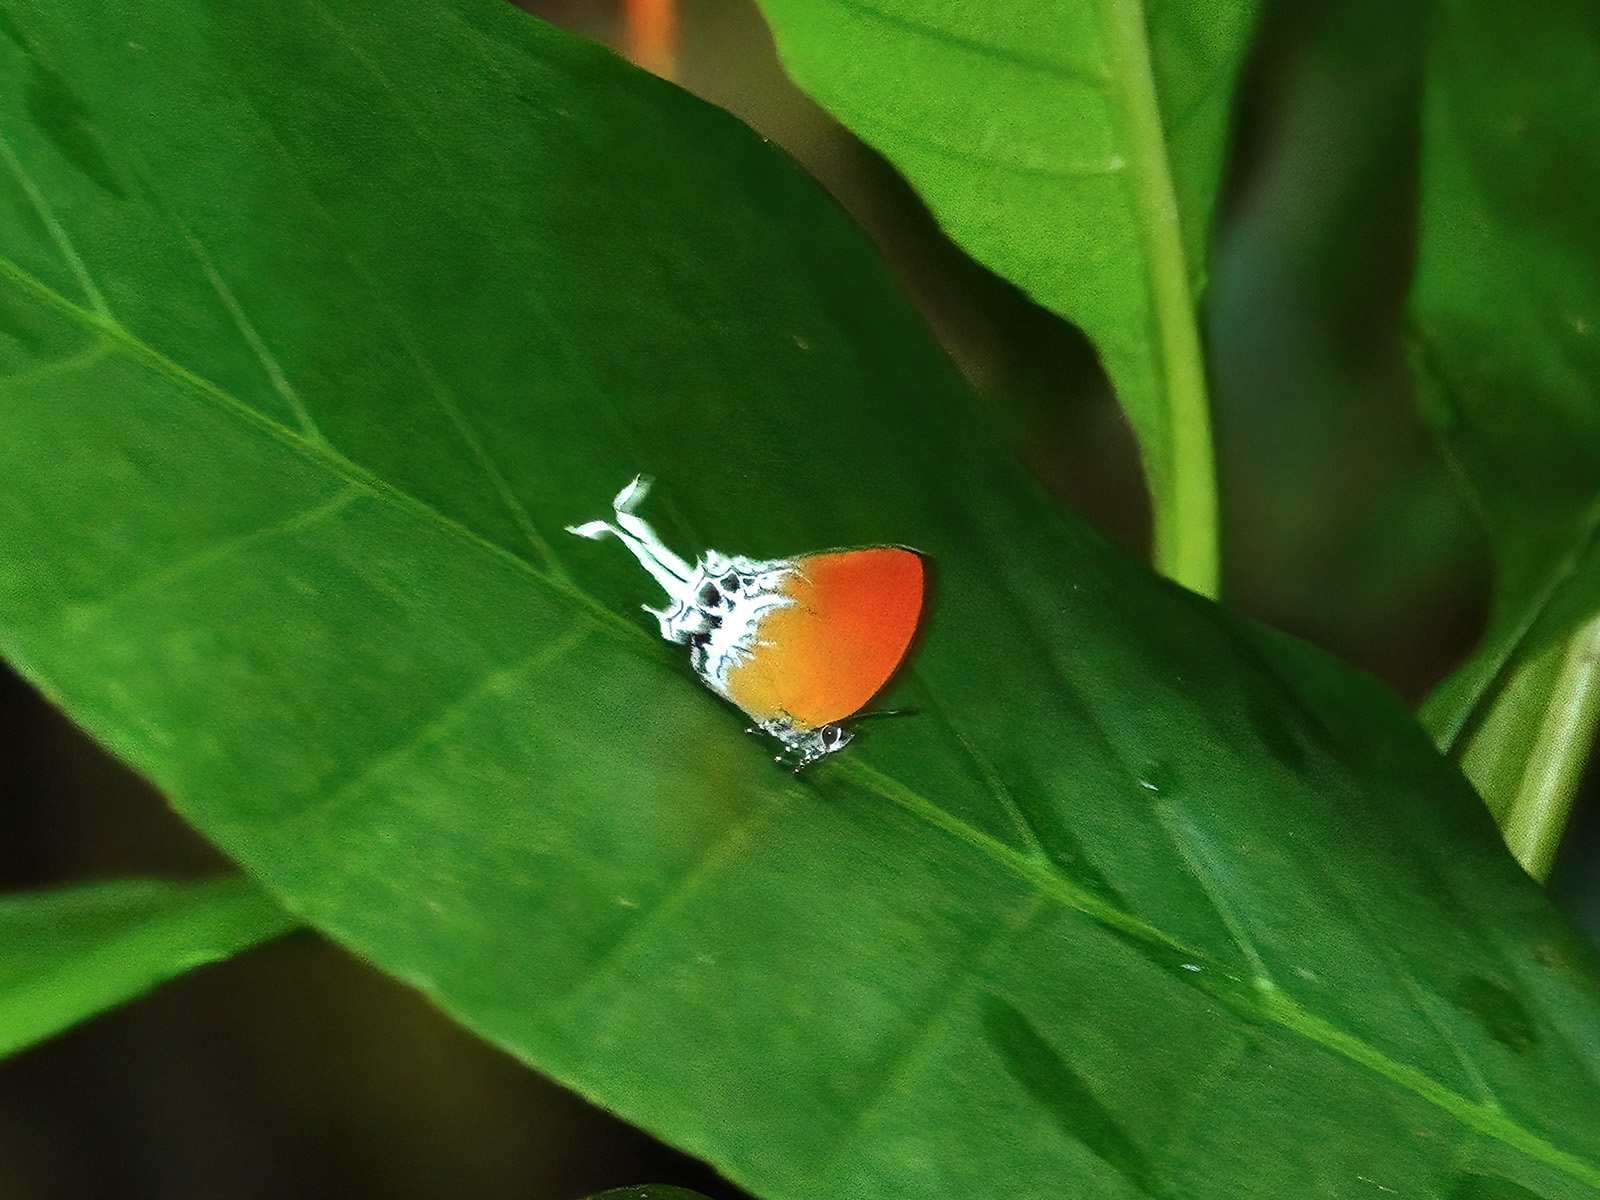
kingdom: Animalia
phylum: Arthropoda
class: Insecta
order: Lepidoptera
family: Lycaenidae
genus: Eooxylides
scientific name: Eooxylides tharis
